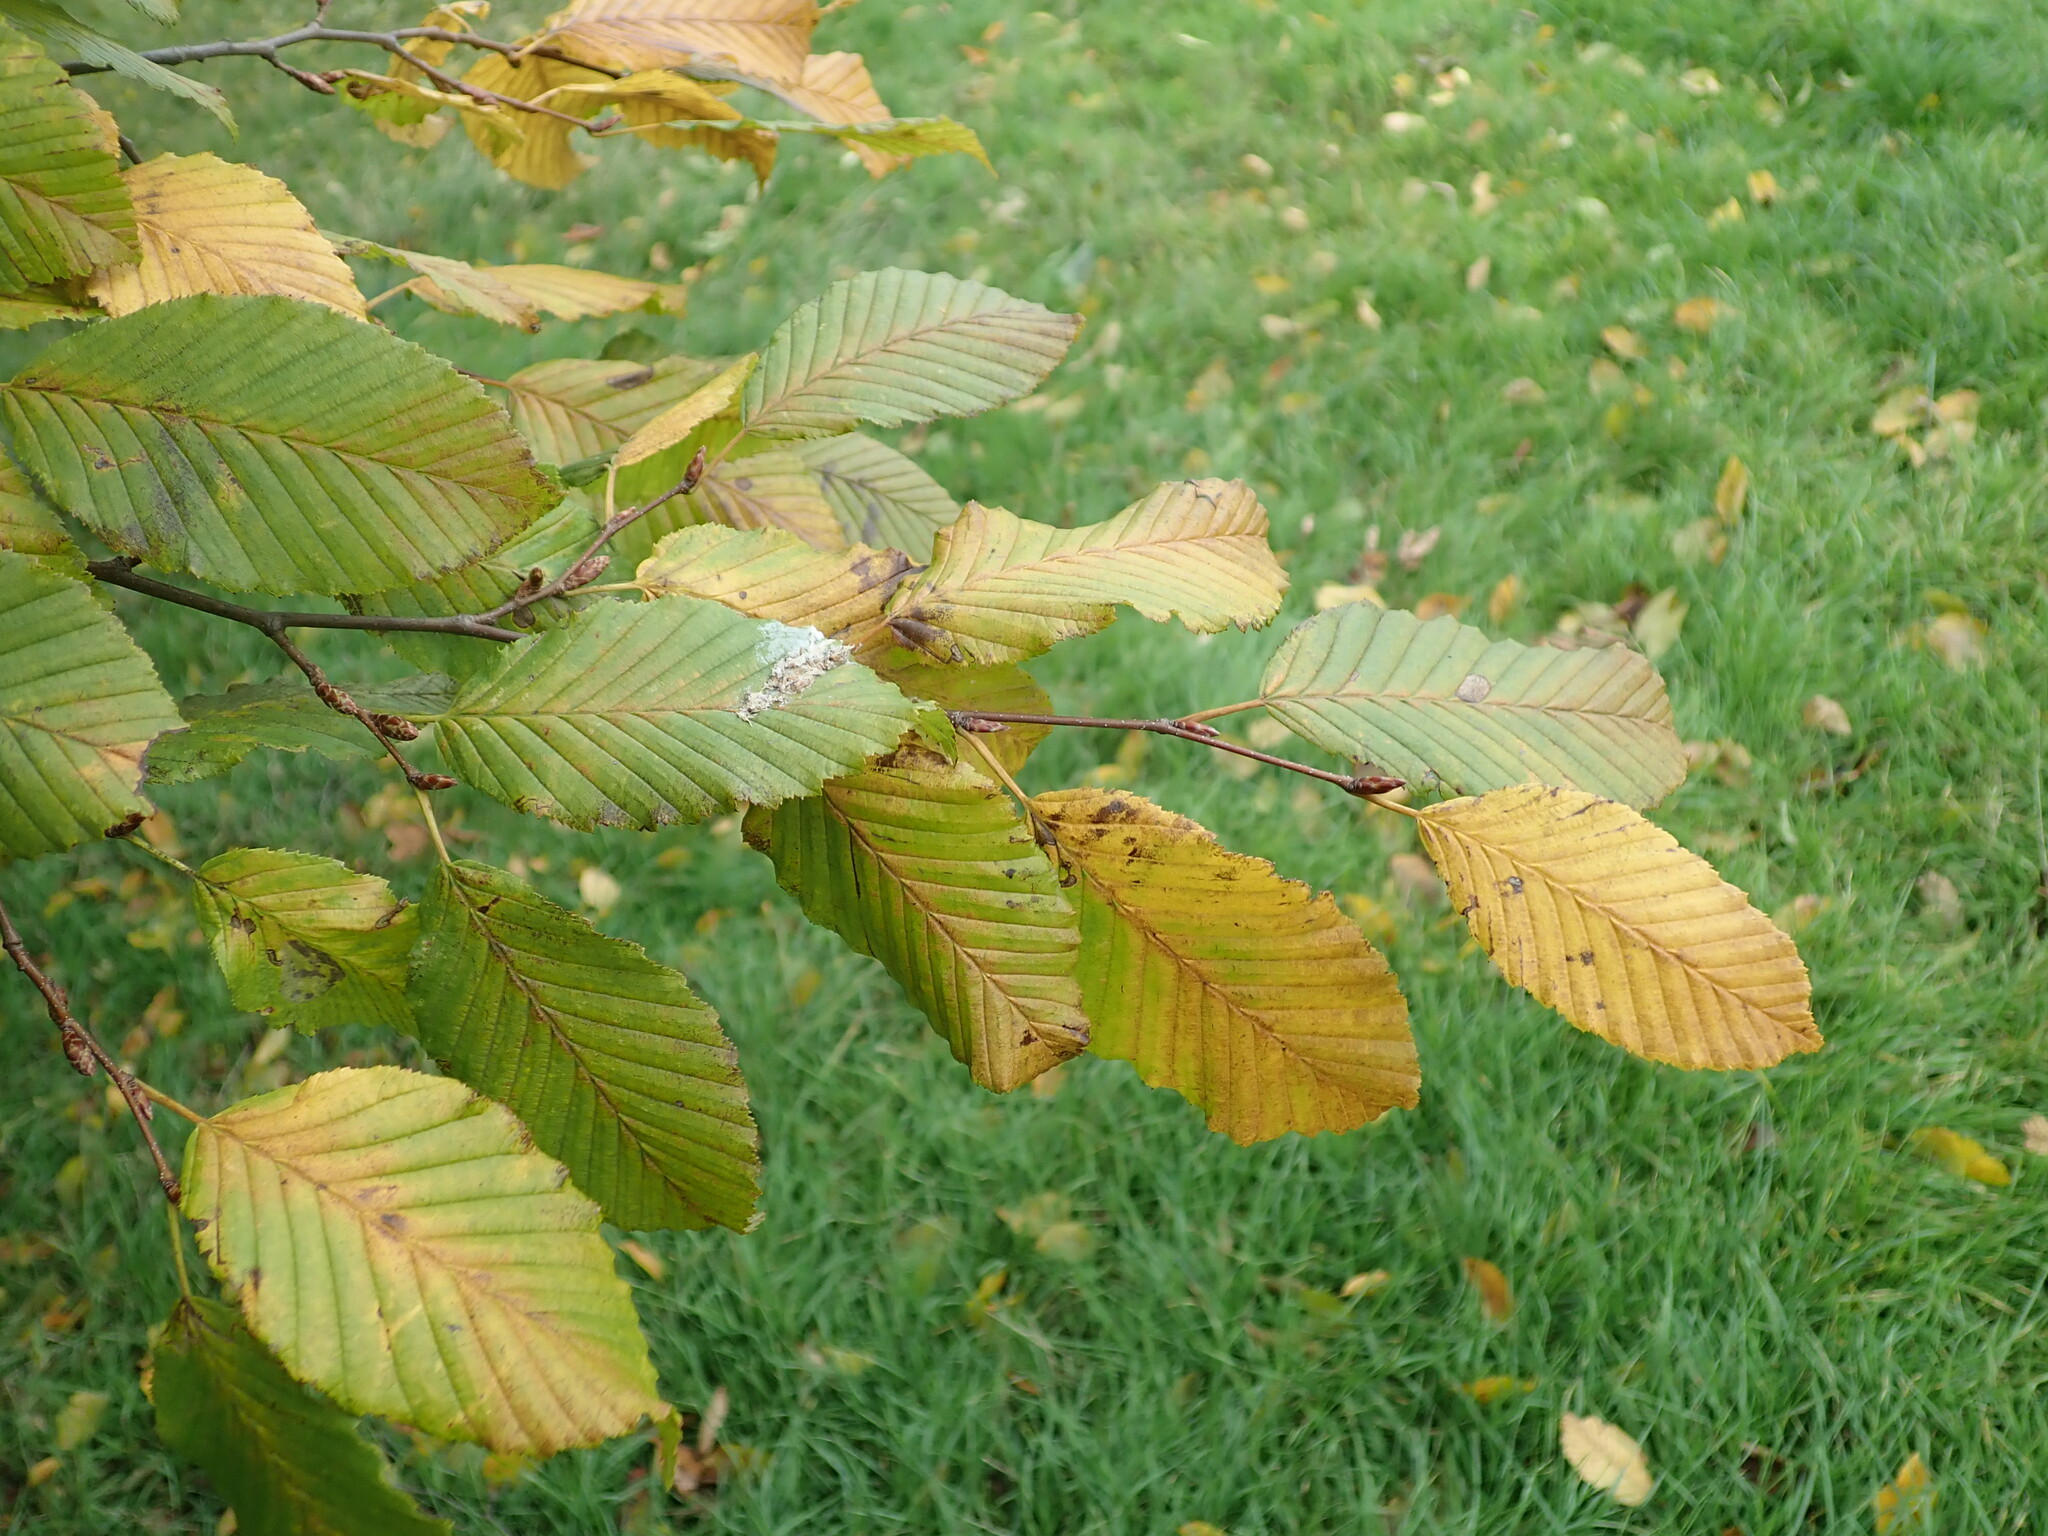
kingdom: Plantae
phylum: Tracheophyta
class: Magnoliopsida
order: Fagales
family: Betulaceae
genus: Carpinus
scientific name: Carpinus betulus
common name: Hornbeam
